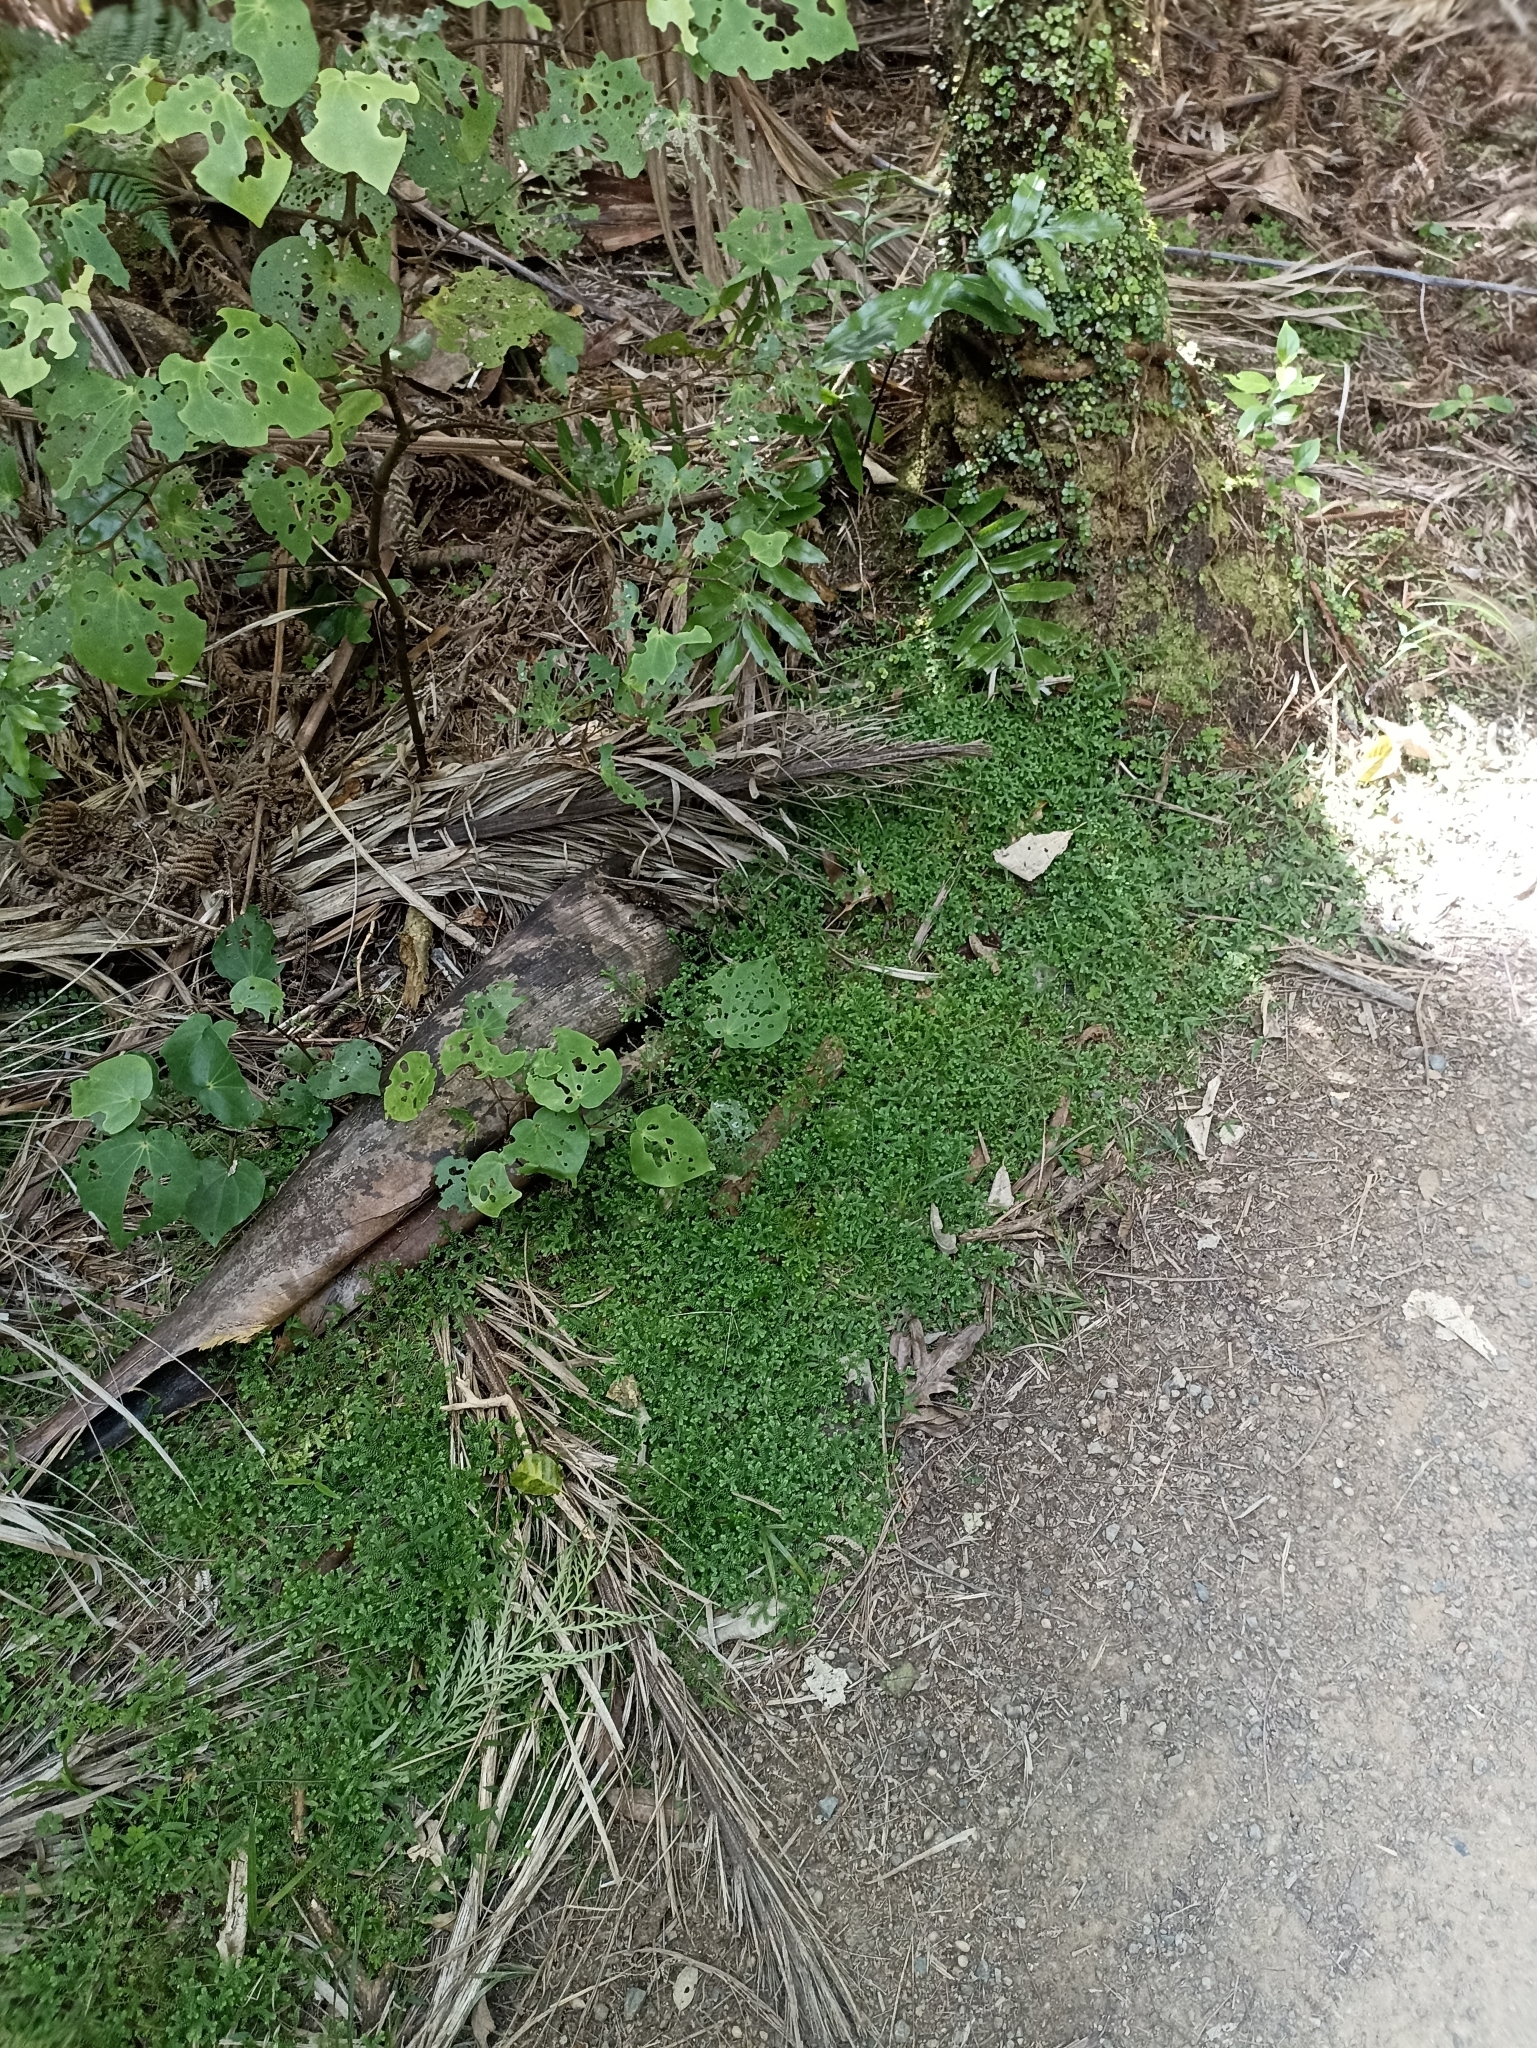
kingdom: Plantae
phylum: Tracheophyta
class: Lycopodiopsida
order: Selaginellales
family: Selaginellaceae
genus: Selaginella
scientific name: Selaginella kraussiana
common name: Krauss' spikemoss
